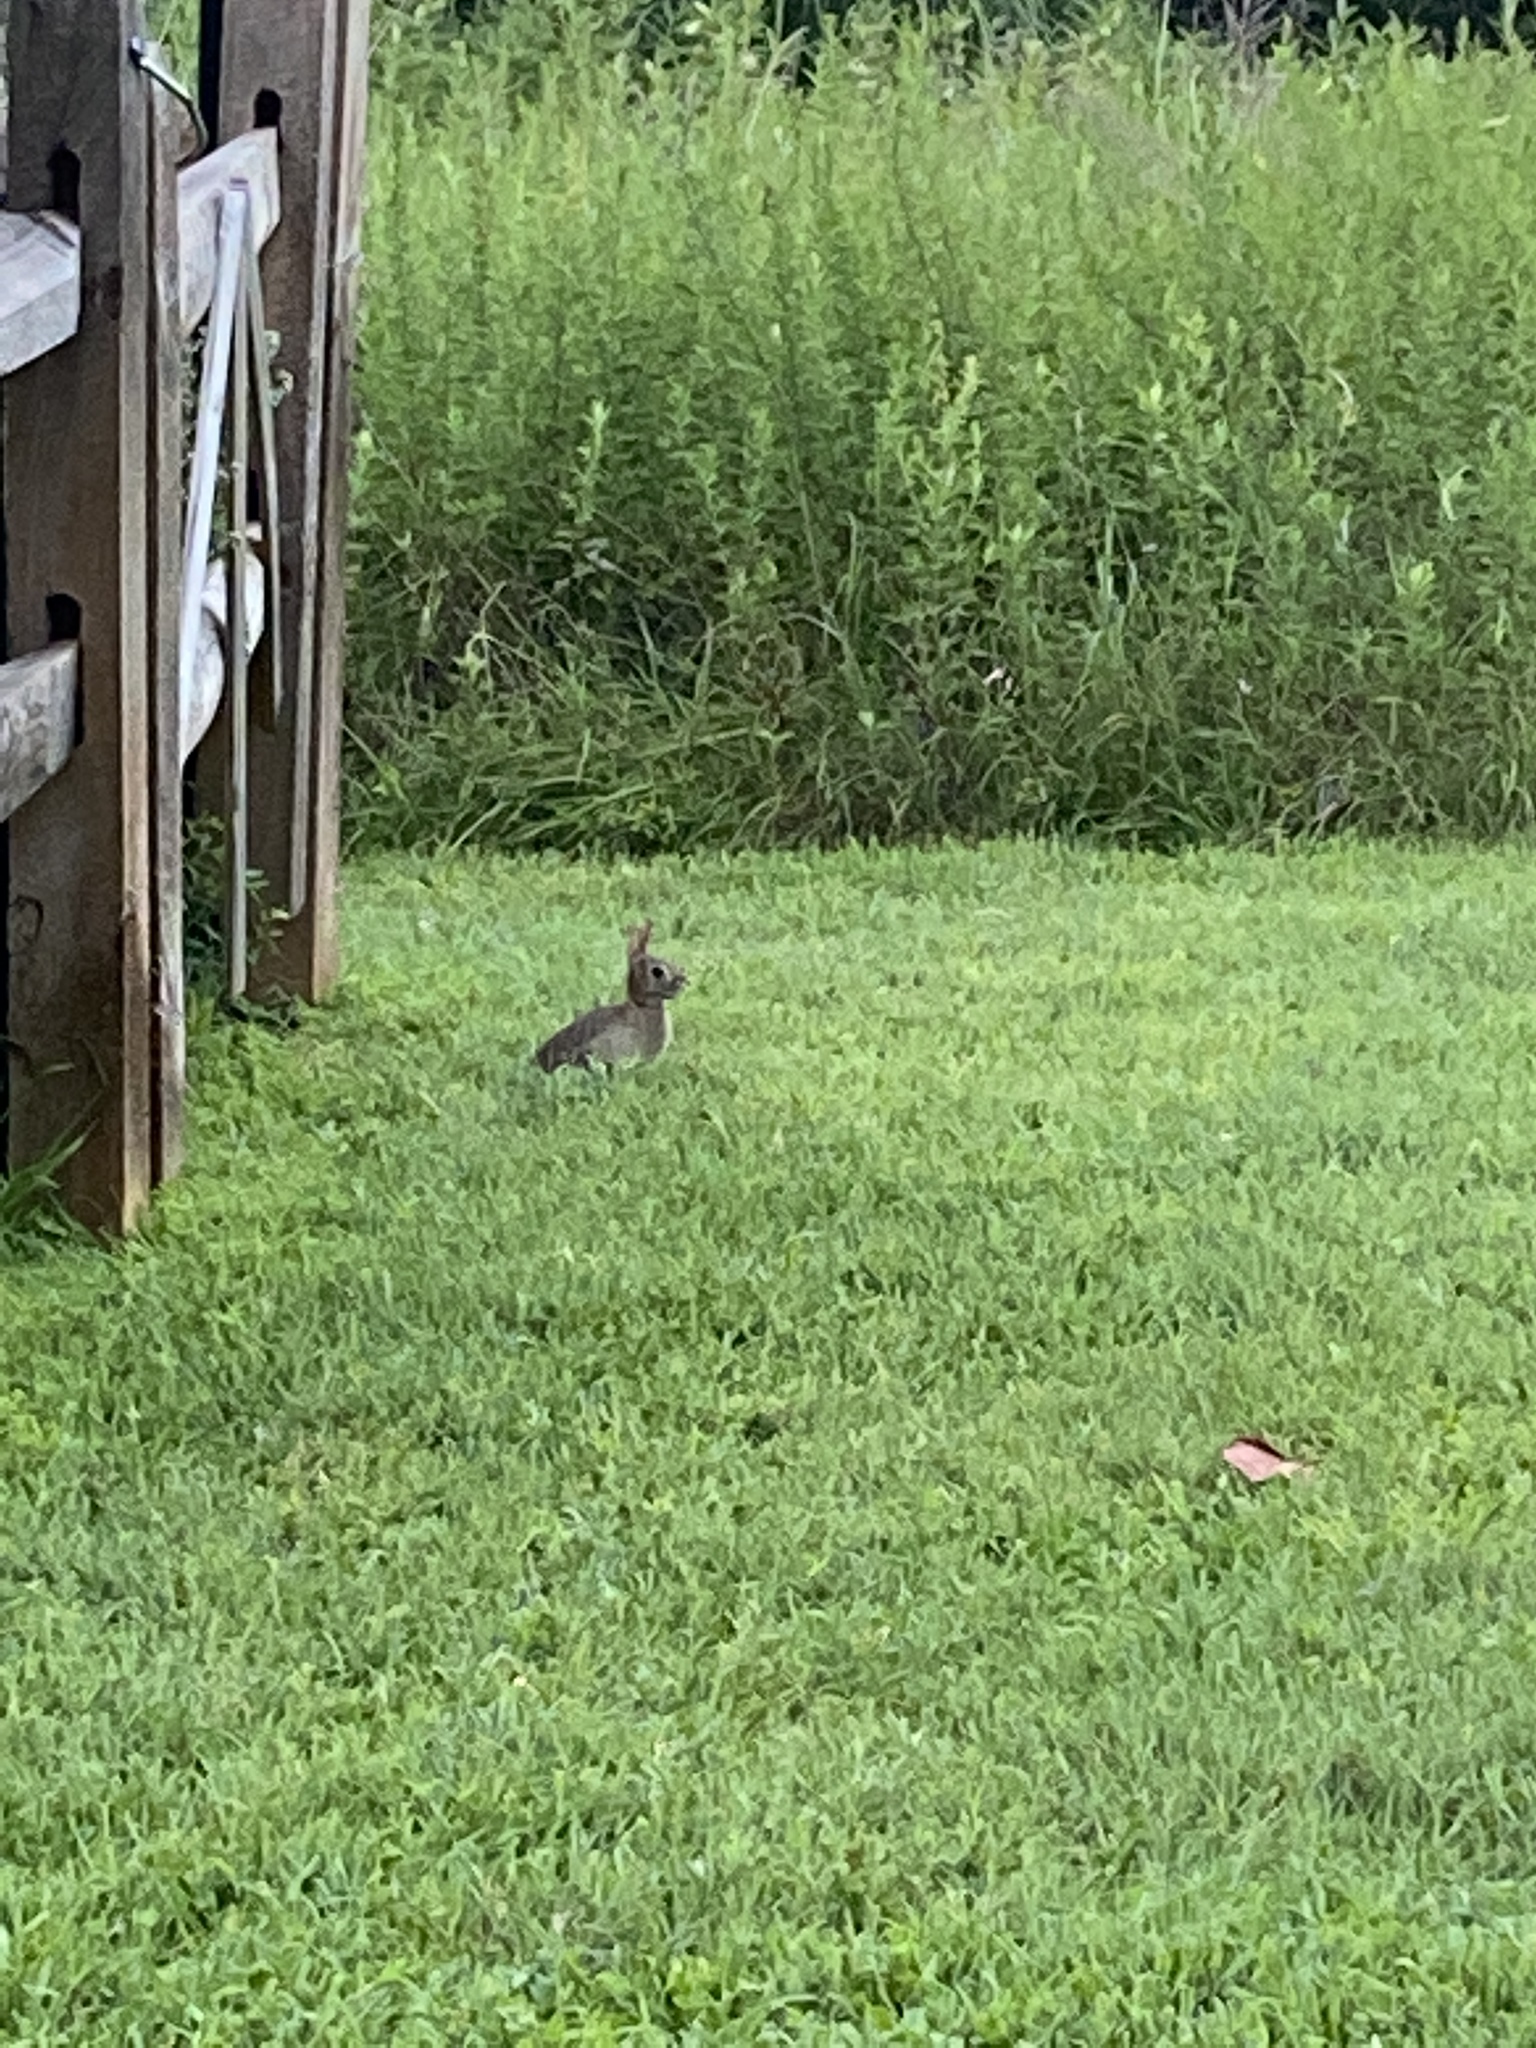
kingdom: Animalia
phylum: Chordata
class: Mammalia
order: Lagomorpha
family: Leporidae
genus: Sylvilagus
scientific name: Sylvilagus floridanus
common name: Eastern cottontail
